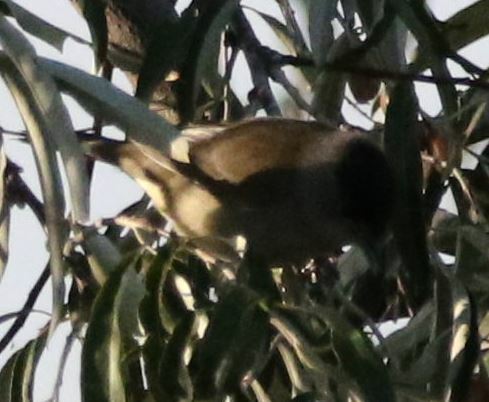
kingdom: Animalia
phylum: Chordata
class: Aves
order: Passeriformes
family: Sylviidae
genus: Sylvia
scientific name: Sylvia atricapilla
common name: Eurasian blackcap
